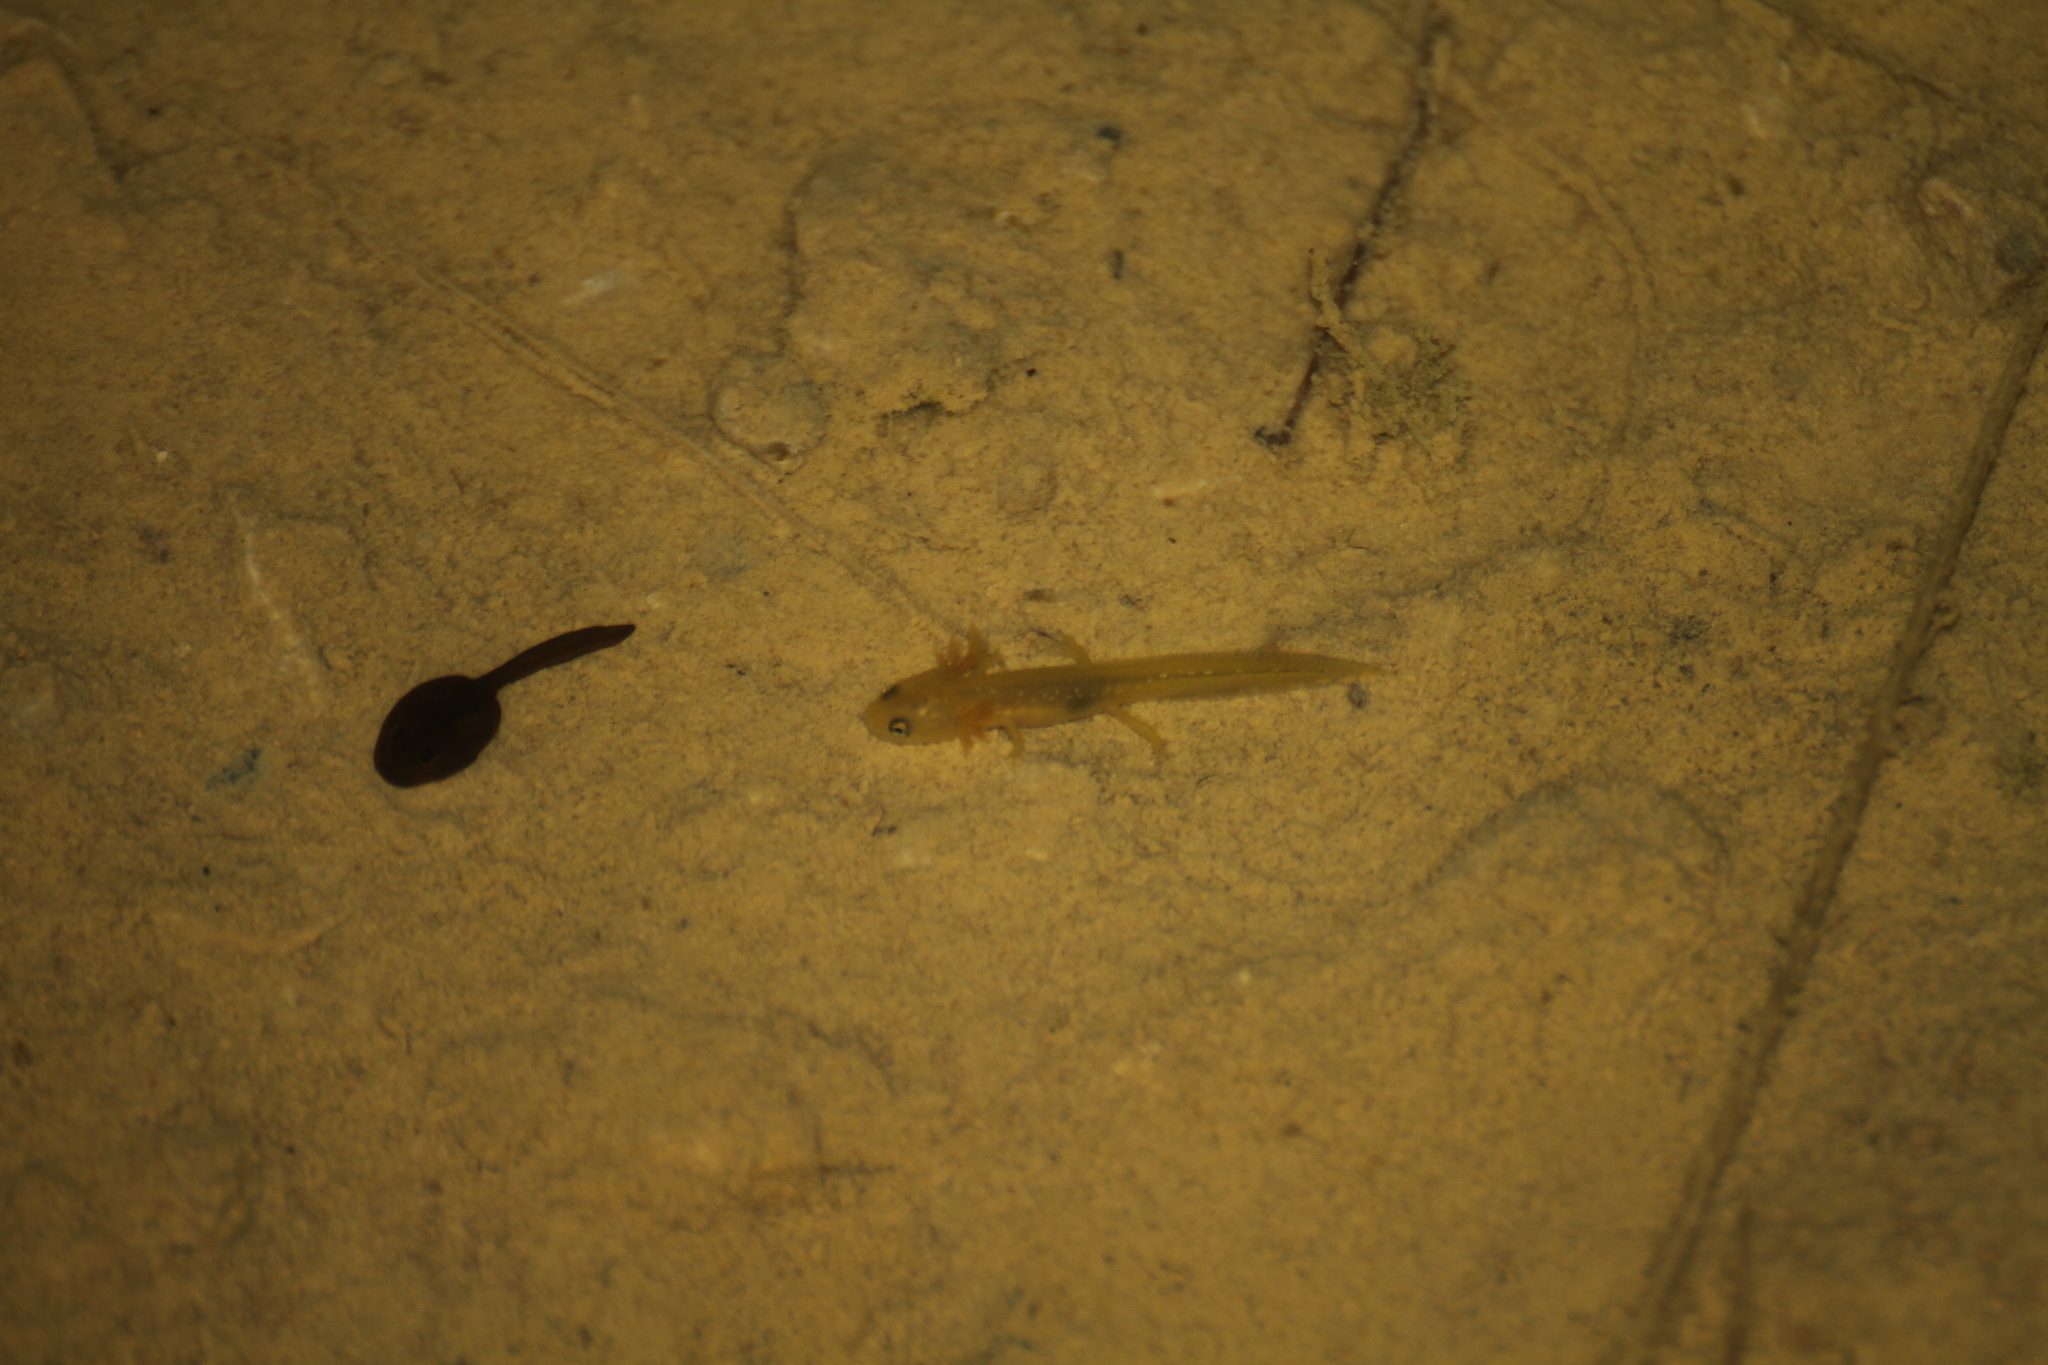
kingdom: Animalia
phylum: Chordata
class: Amphibia
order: Caudata
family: Salamandridae
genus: Lissotriton
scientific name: Lissotriton helveticus
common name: Palmate newt
